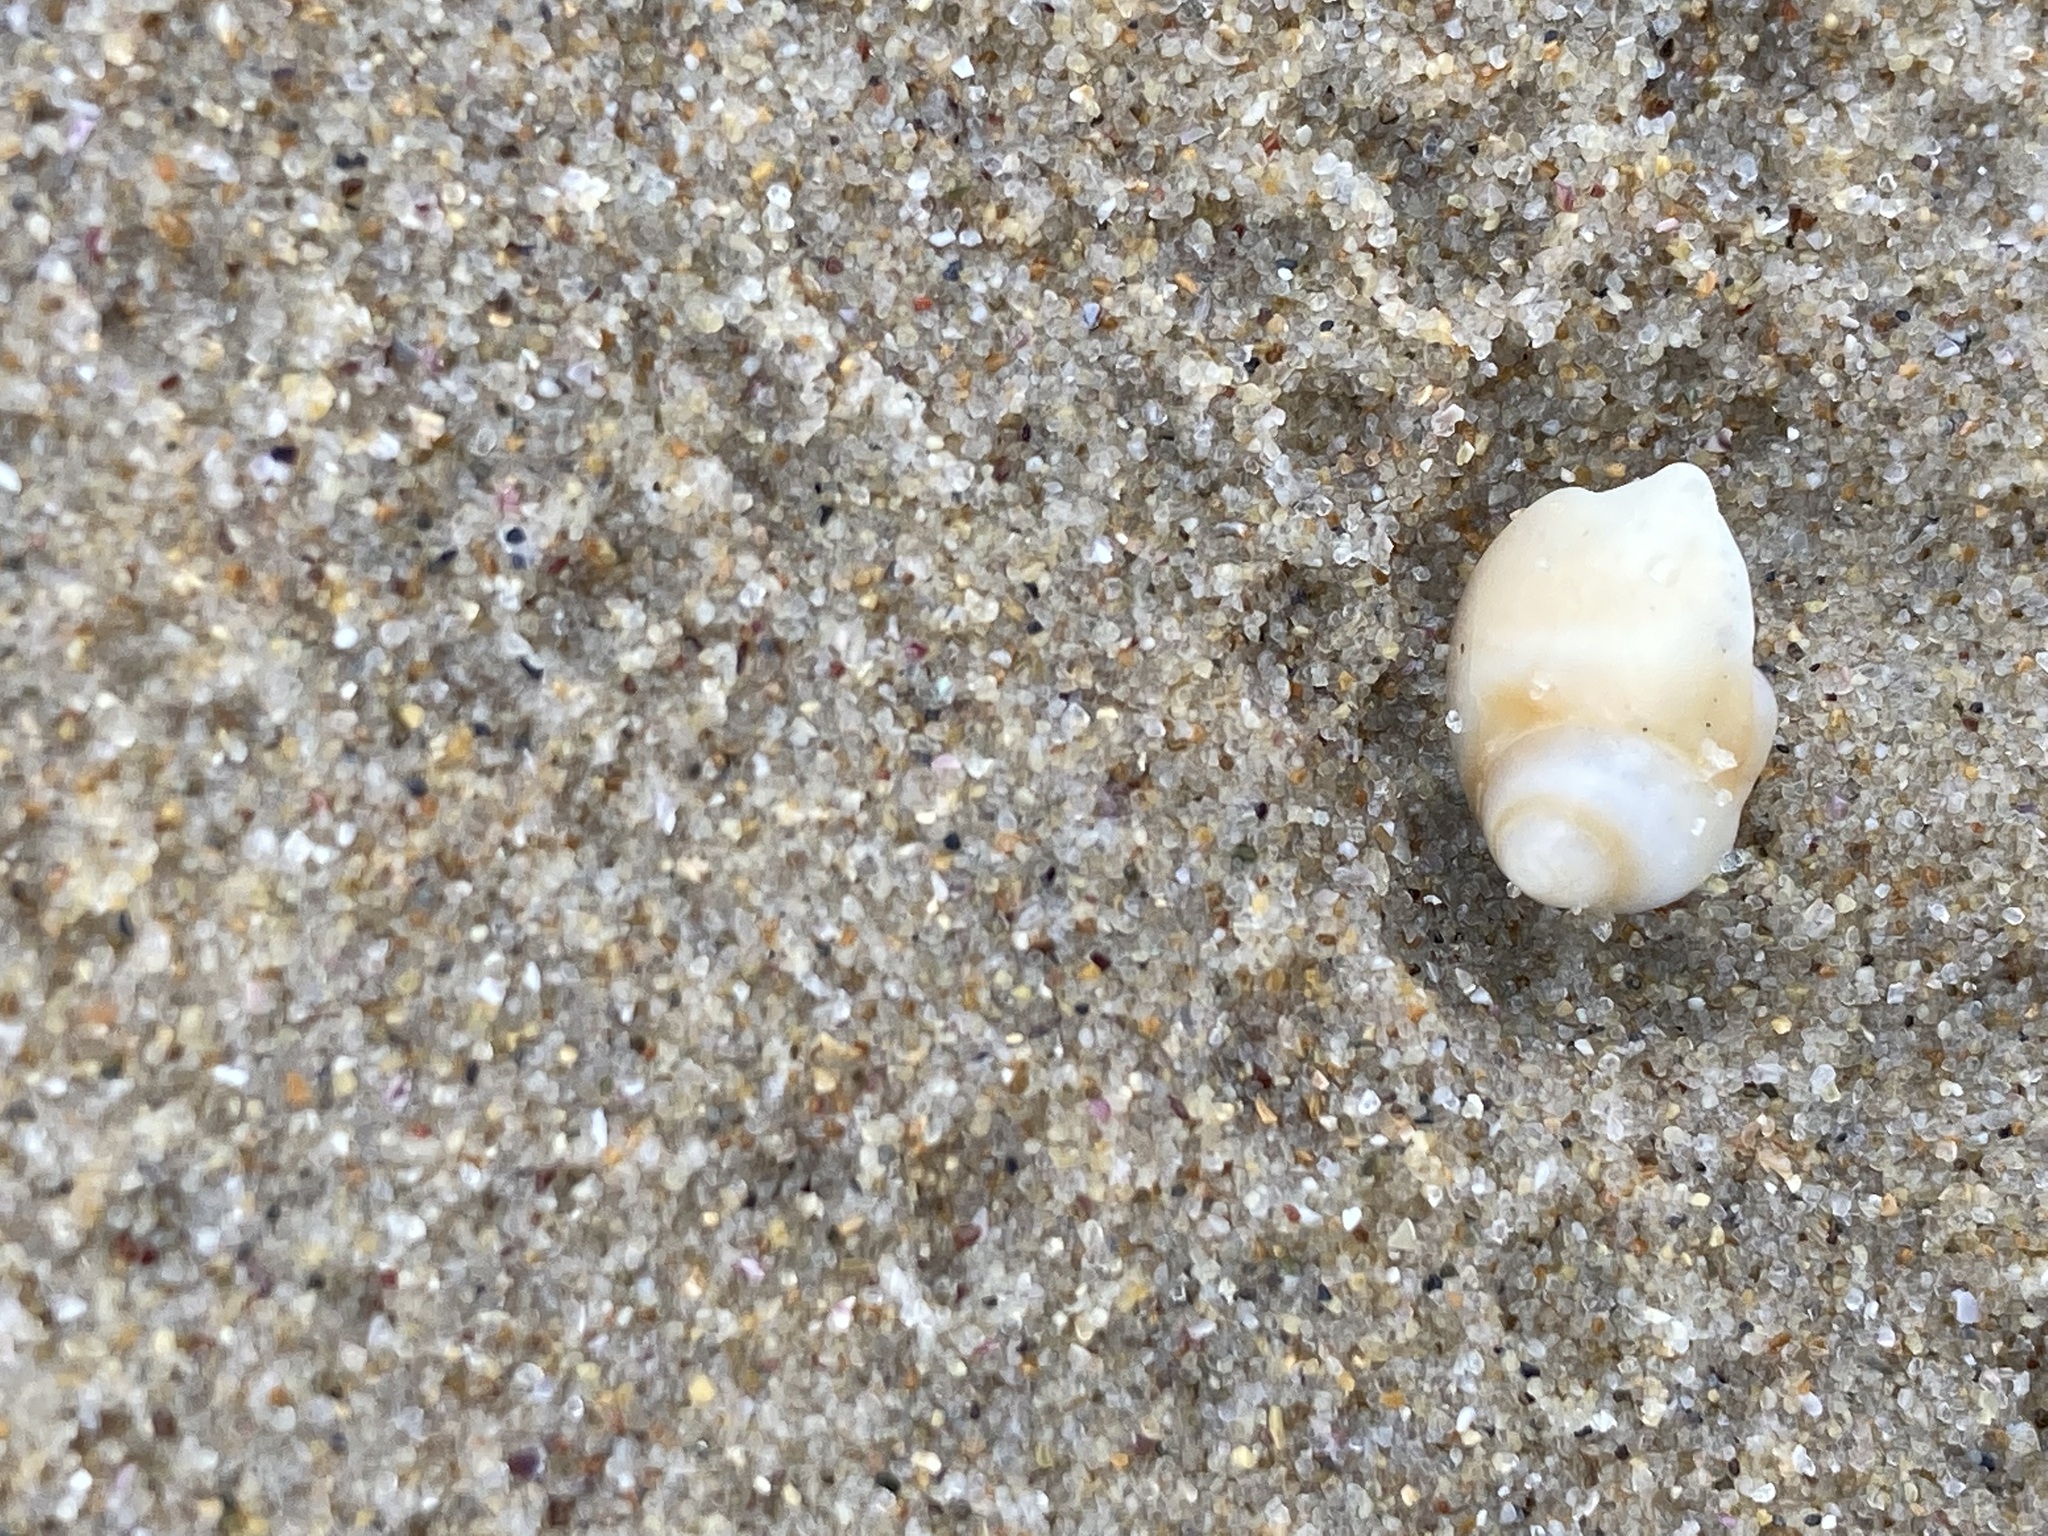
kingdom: Animalia
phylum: Mollusca
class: Gastropoda
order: Littorinimorpha
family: Naticidae
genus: Conuber
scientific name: Conuber conicum
